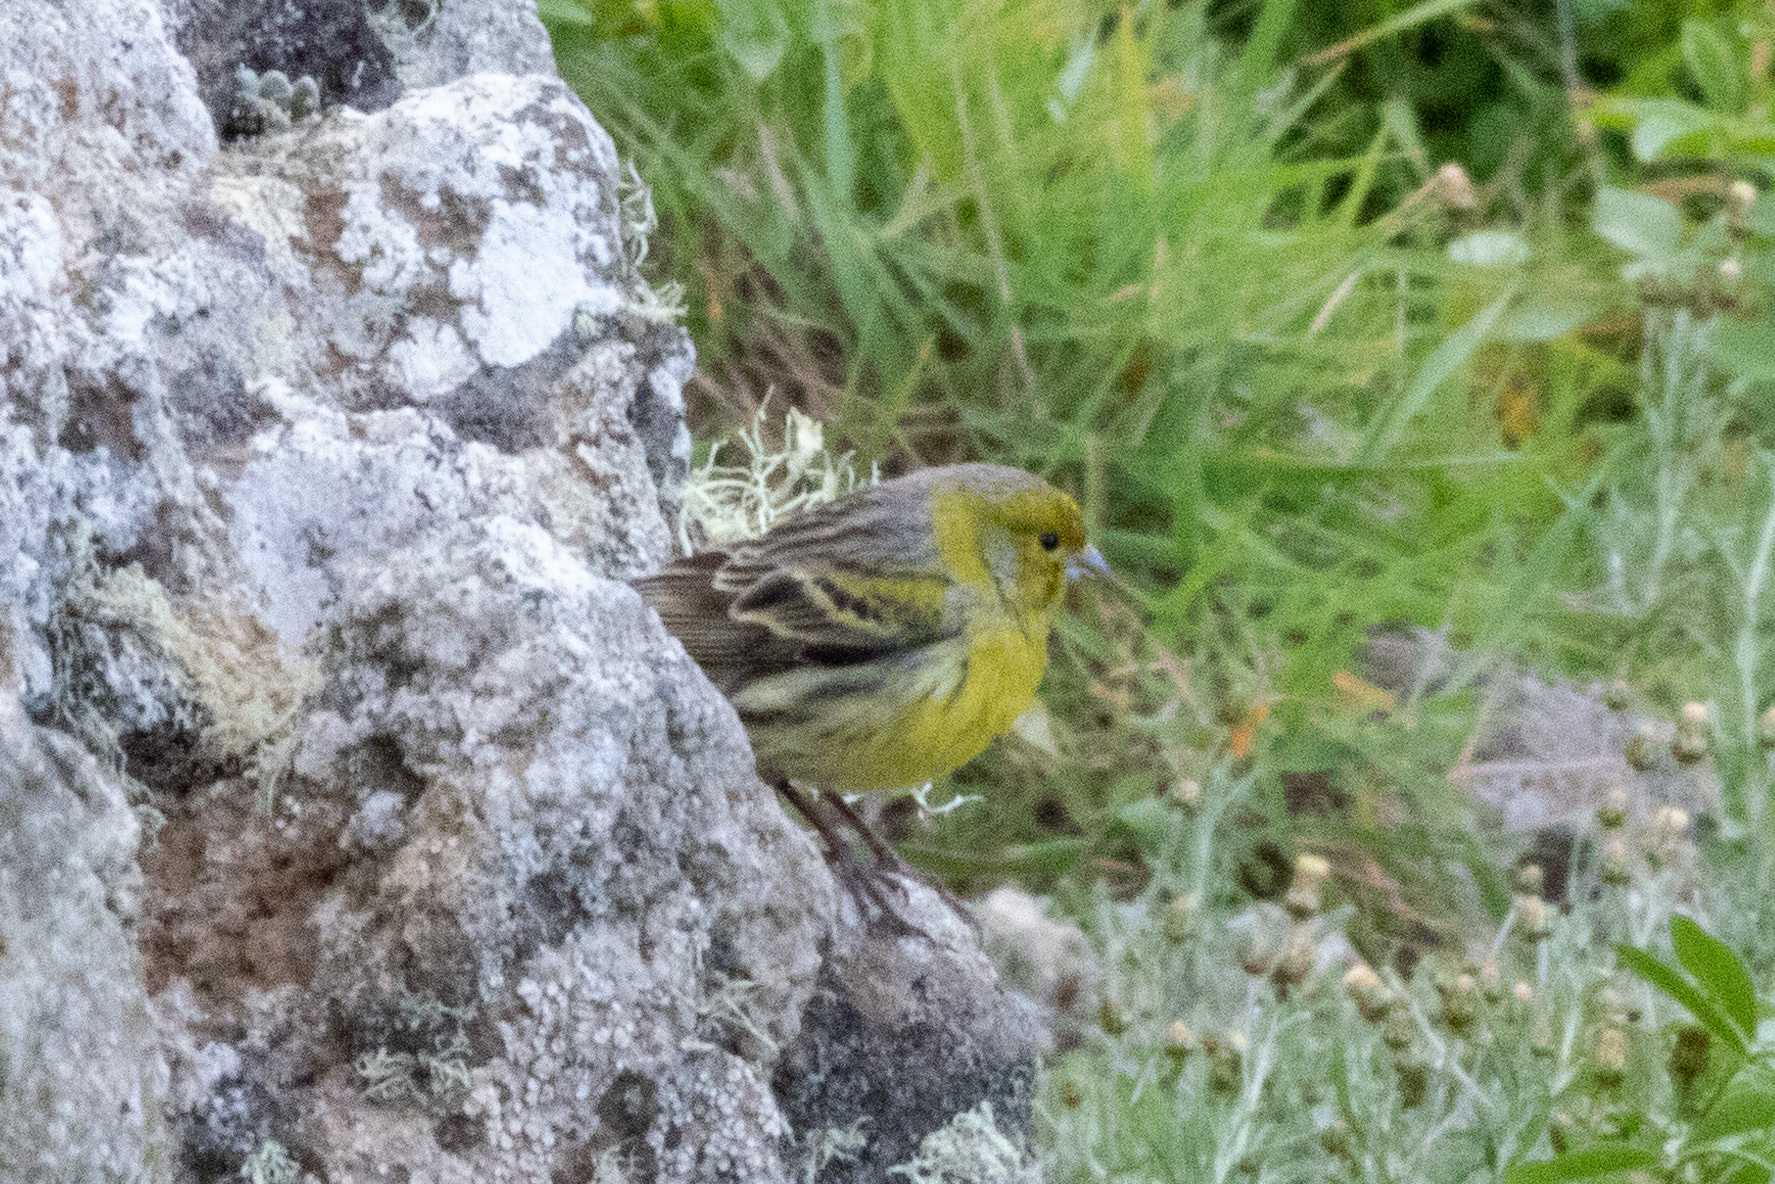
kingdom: Animalia
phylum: Chordata
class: Aves
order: Passeriformes
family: Fringillidae
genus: Serinus
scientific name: Serinus canaria
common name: Atlantic canary
